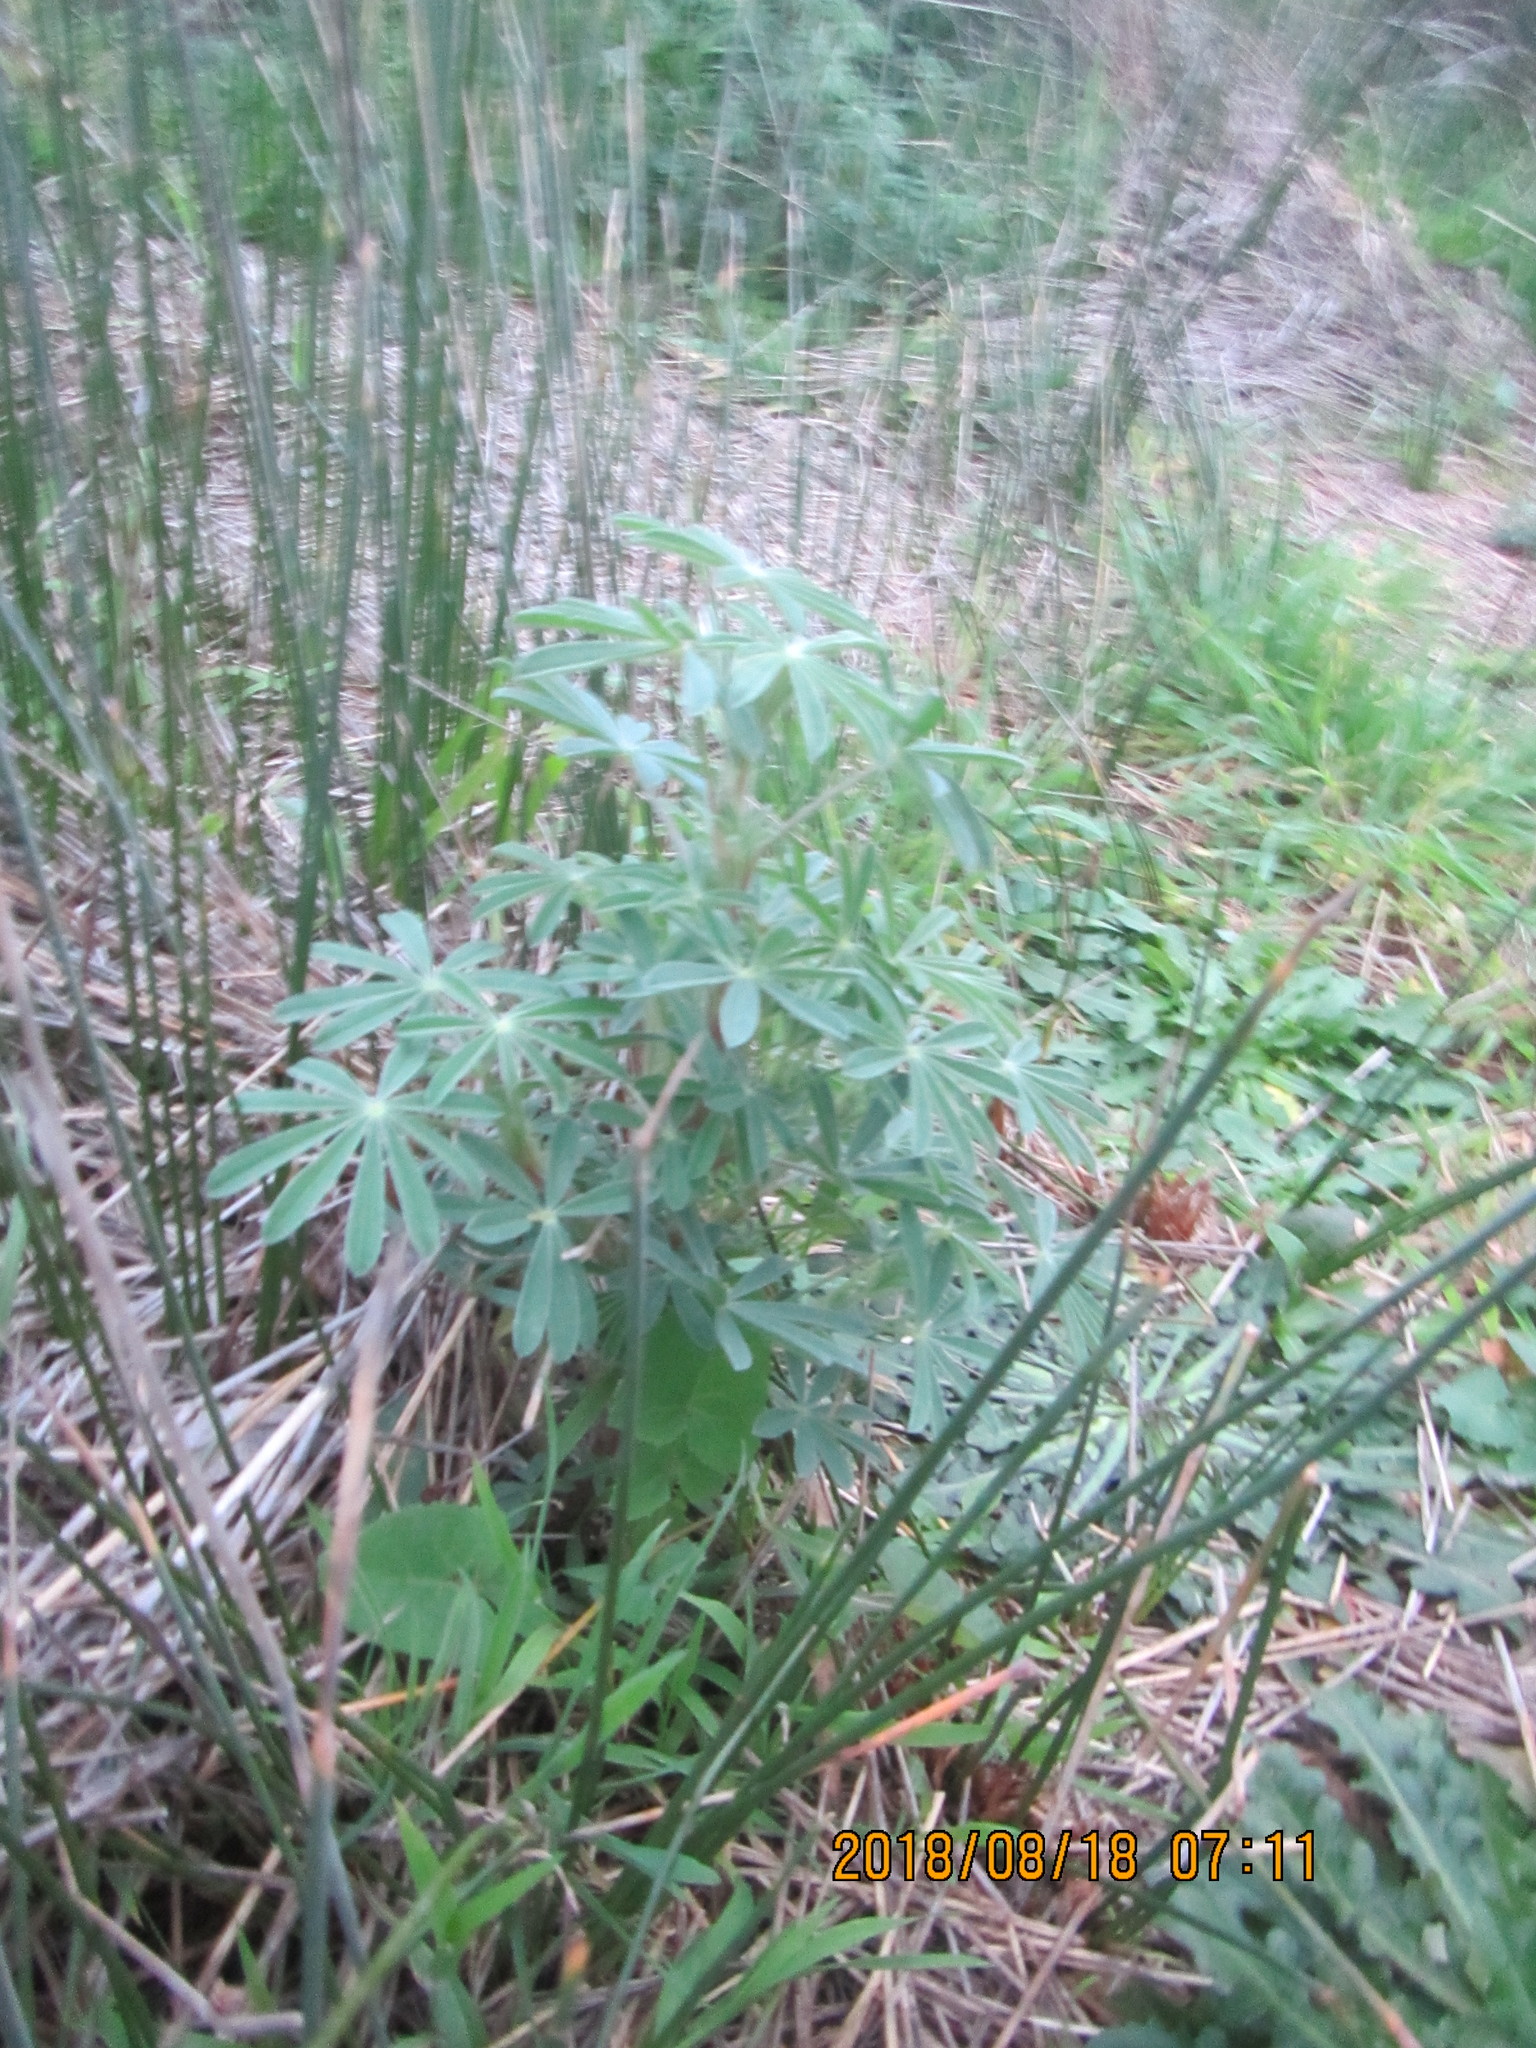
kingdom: Plantae
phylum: Tracheophyta
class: Magnoliopsida
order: Fabales
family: Fabaceae
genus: Lupinus
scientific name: Lupinus arboreus
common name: Yellow bush lupine
